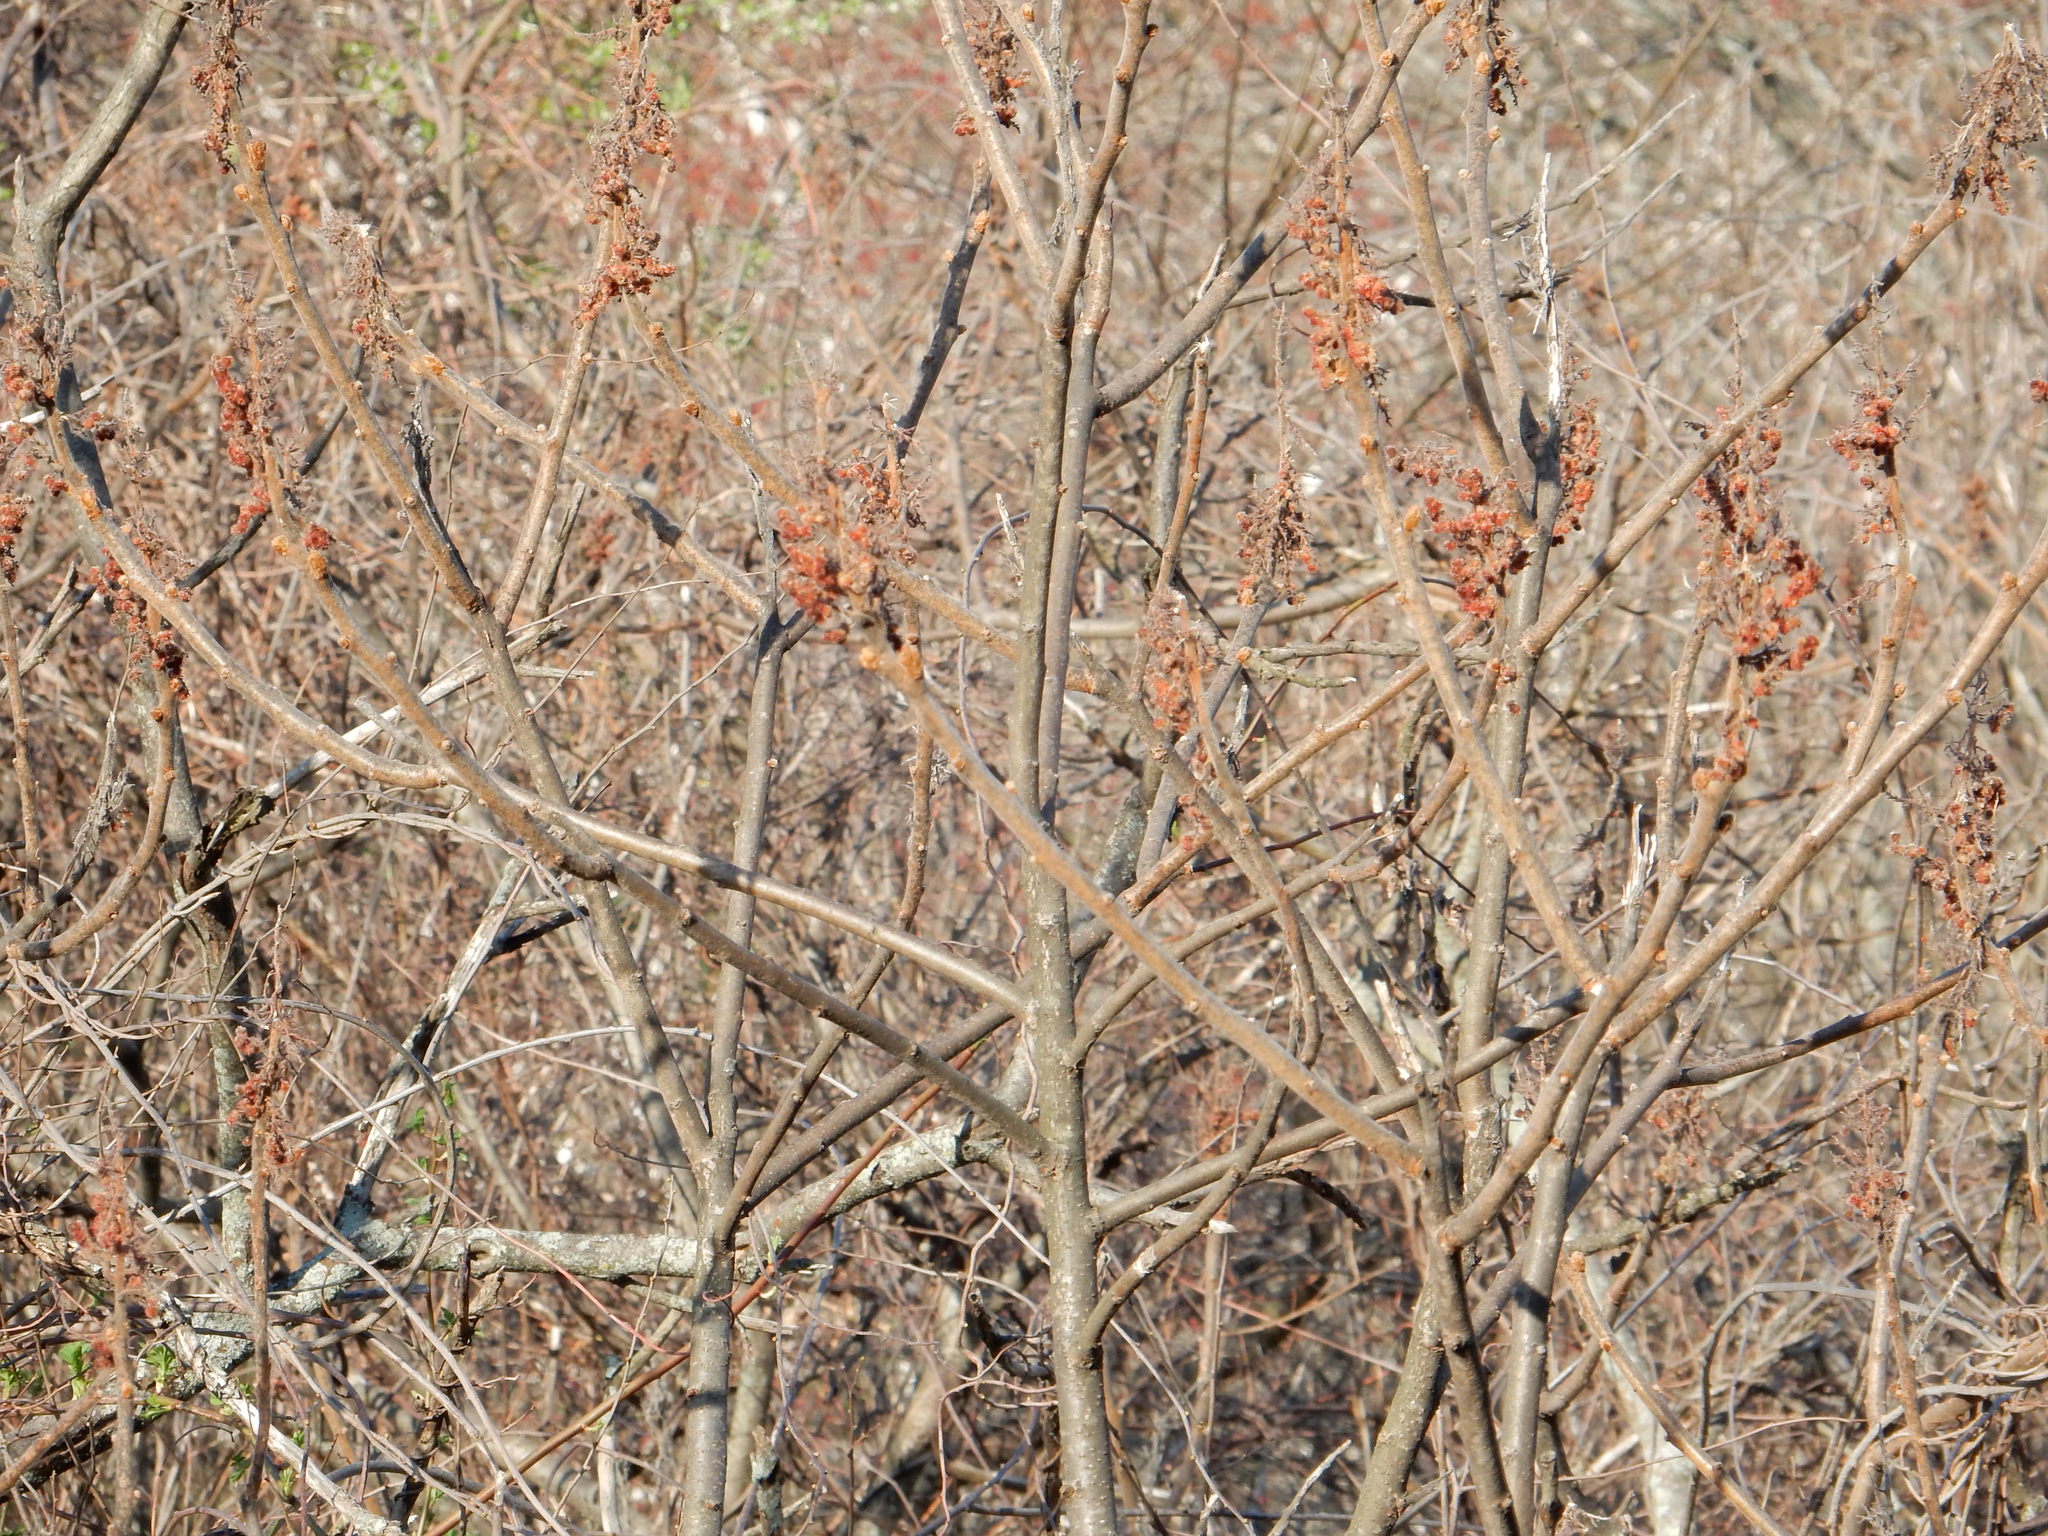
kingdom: Plantae
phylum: Tracheophyta
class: Magnoliopsida
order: Sapindales
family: Anacardiaceae
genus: Rhus
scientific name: Rhus typhina
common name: Staghorn sumac
